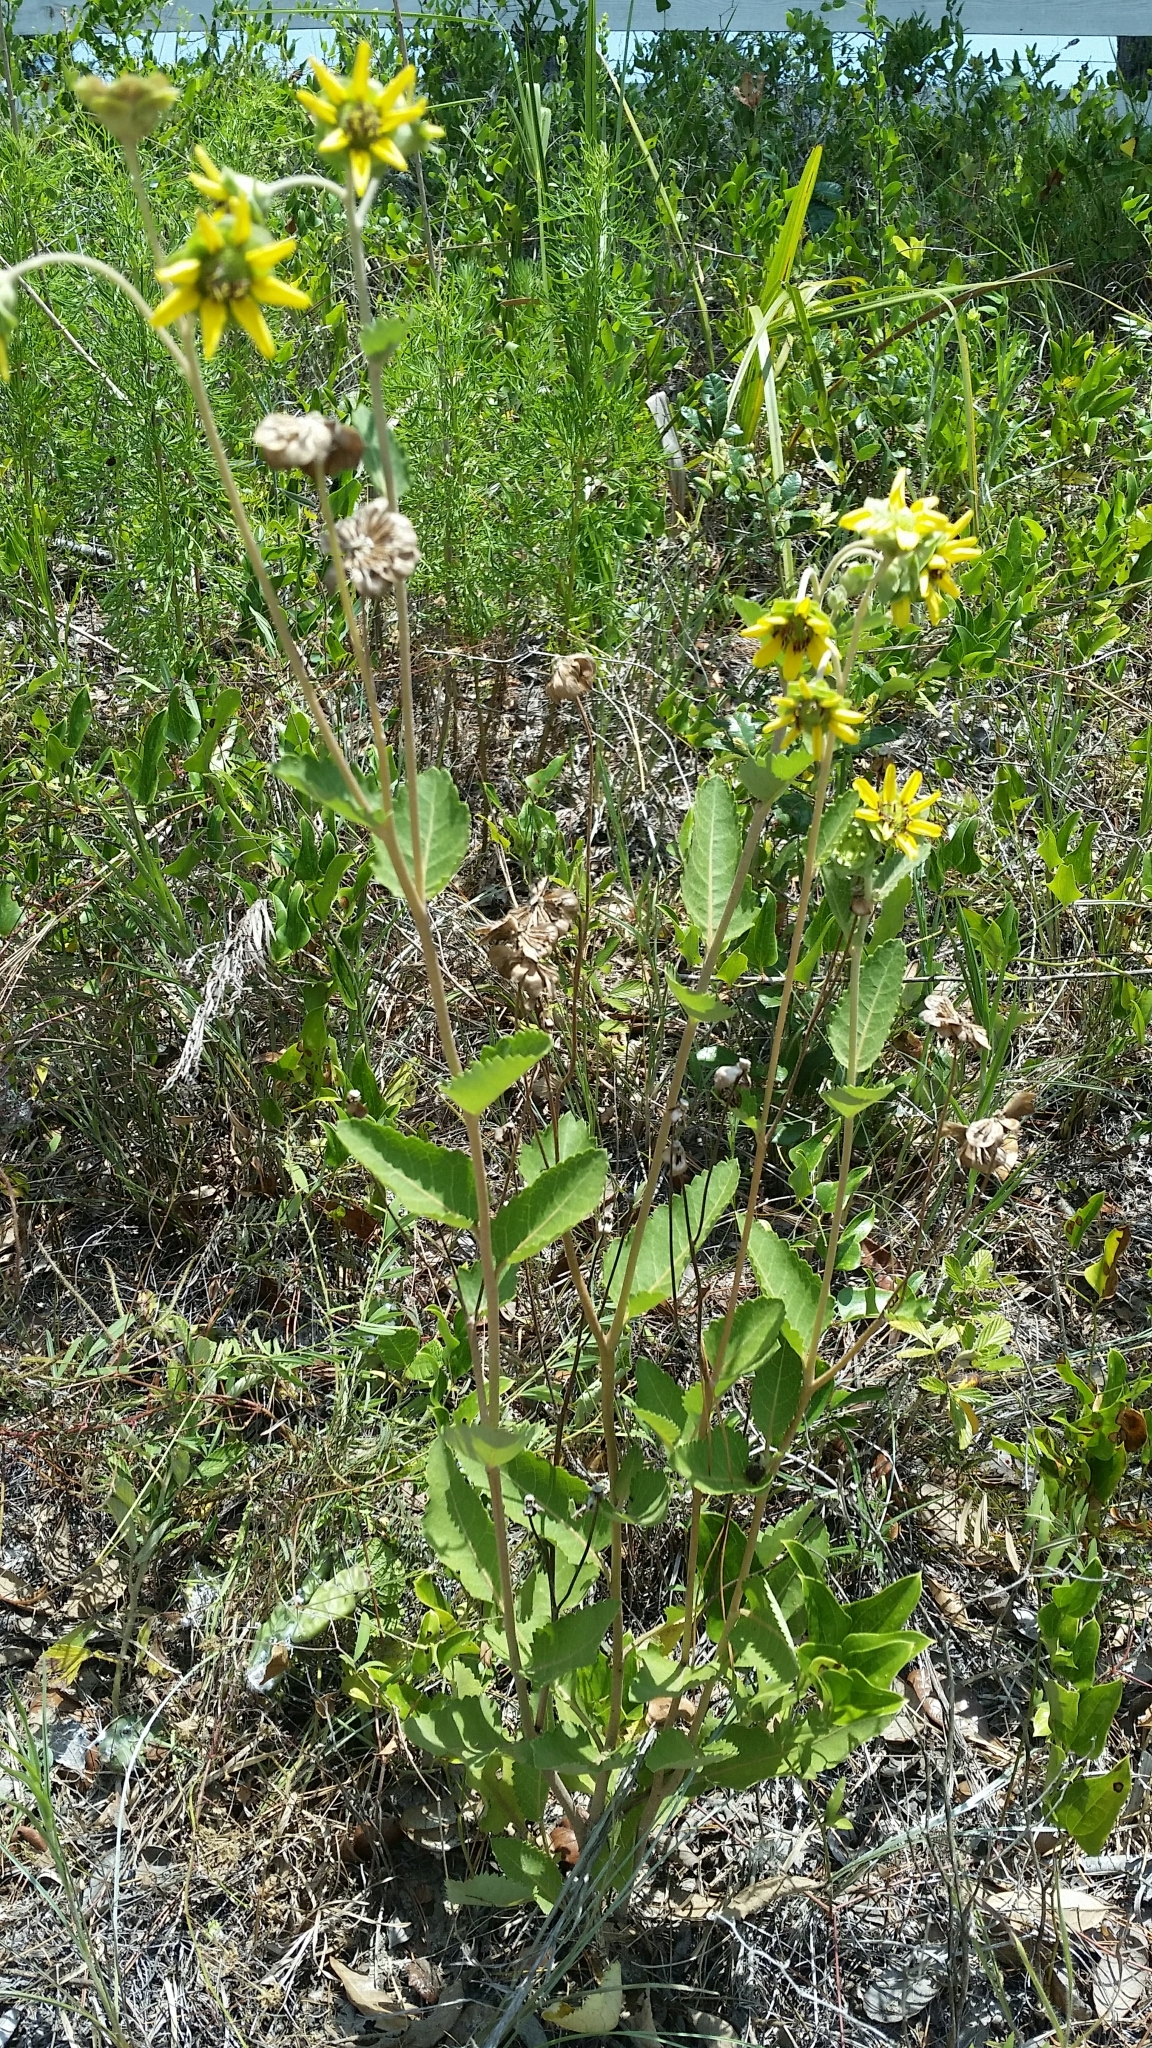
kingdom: Plantae
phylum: Tracheophyta
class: Magnoliopsida
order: Asterales
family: Asteraceae
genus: Berlandiera
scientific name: Berlandiera pumila
